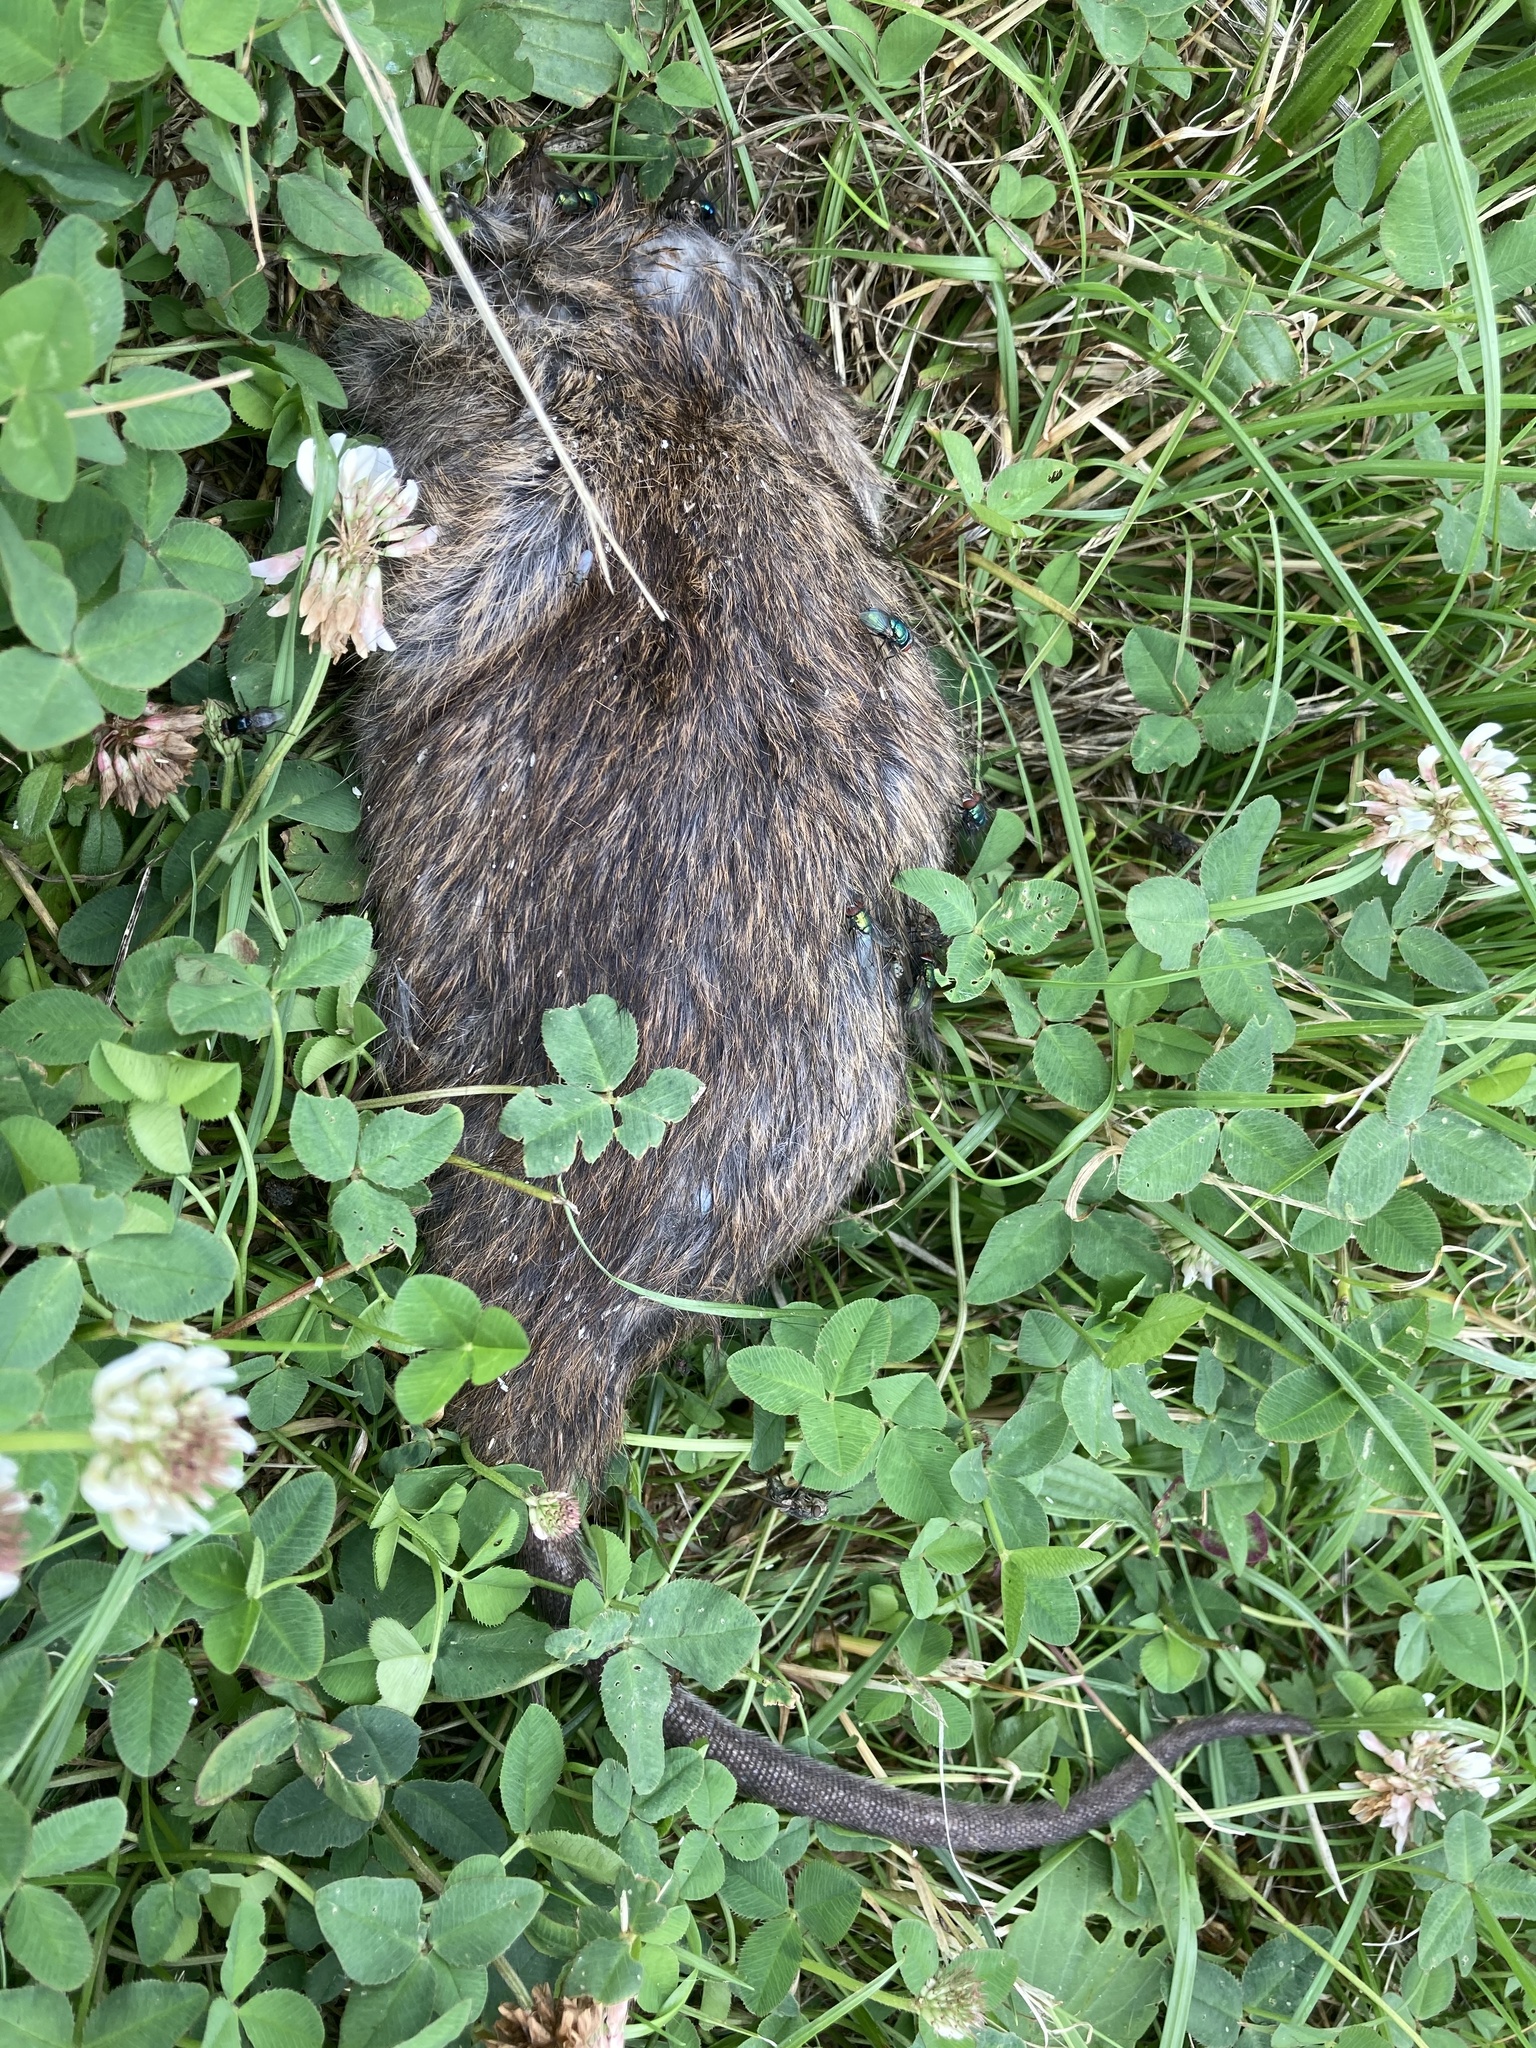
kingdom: Animalia
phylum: Chordata
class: Mammalia
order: Rodentia
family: Muridae
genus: Rattus
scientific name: Rattus norvegicus
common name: Brown rat
